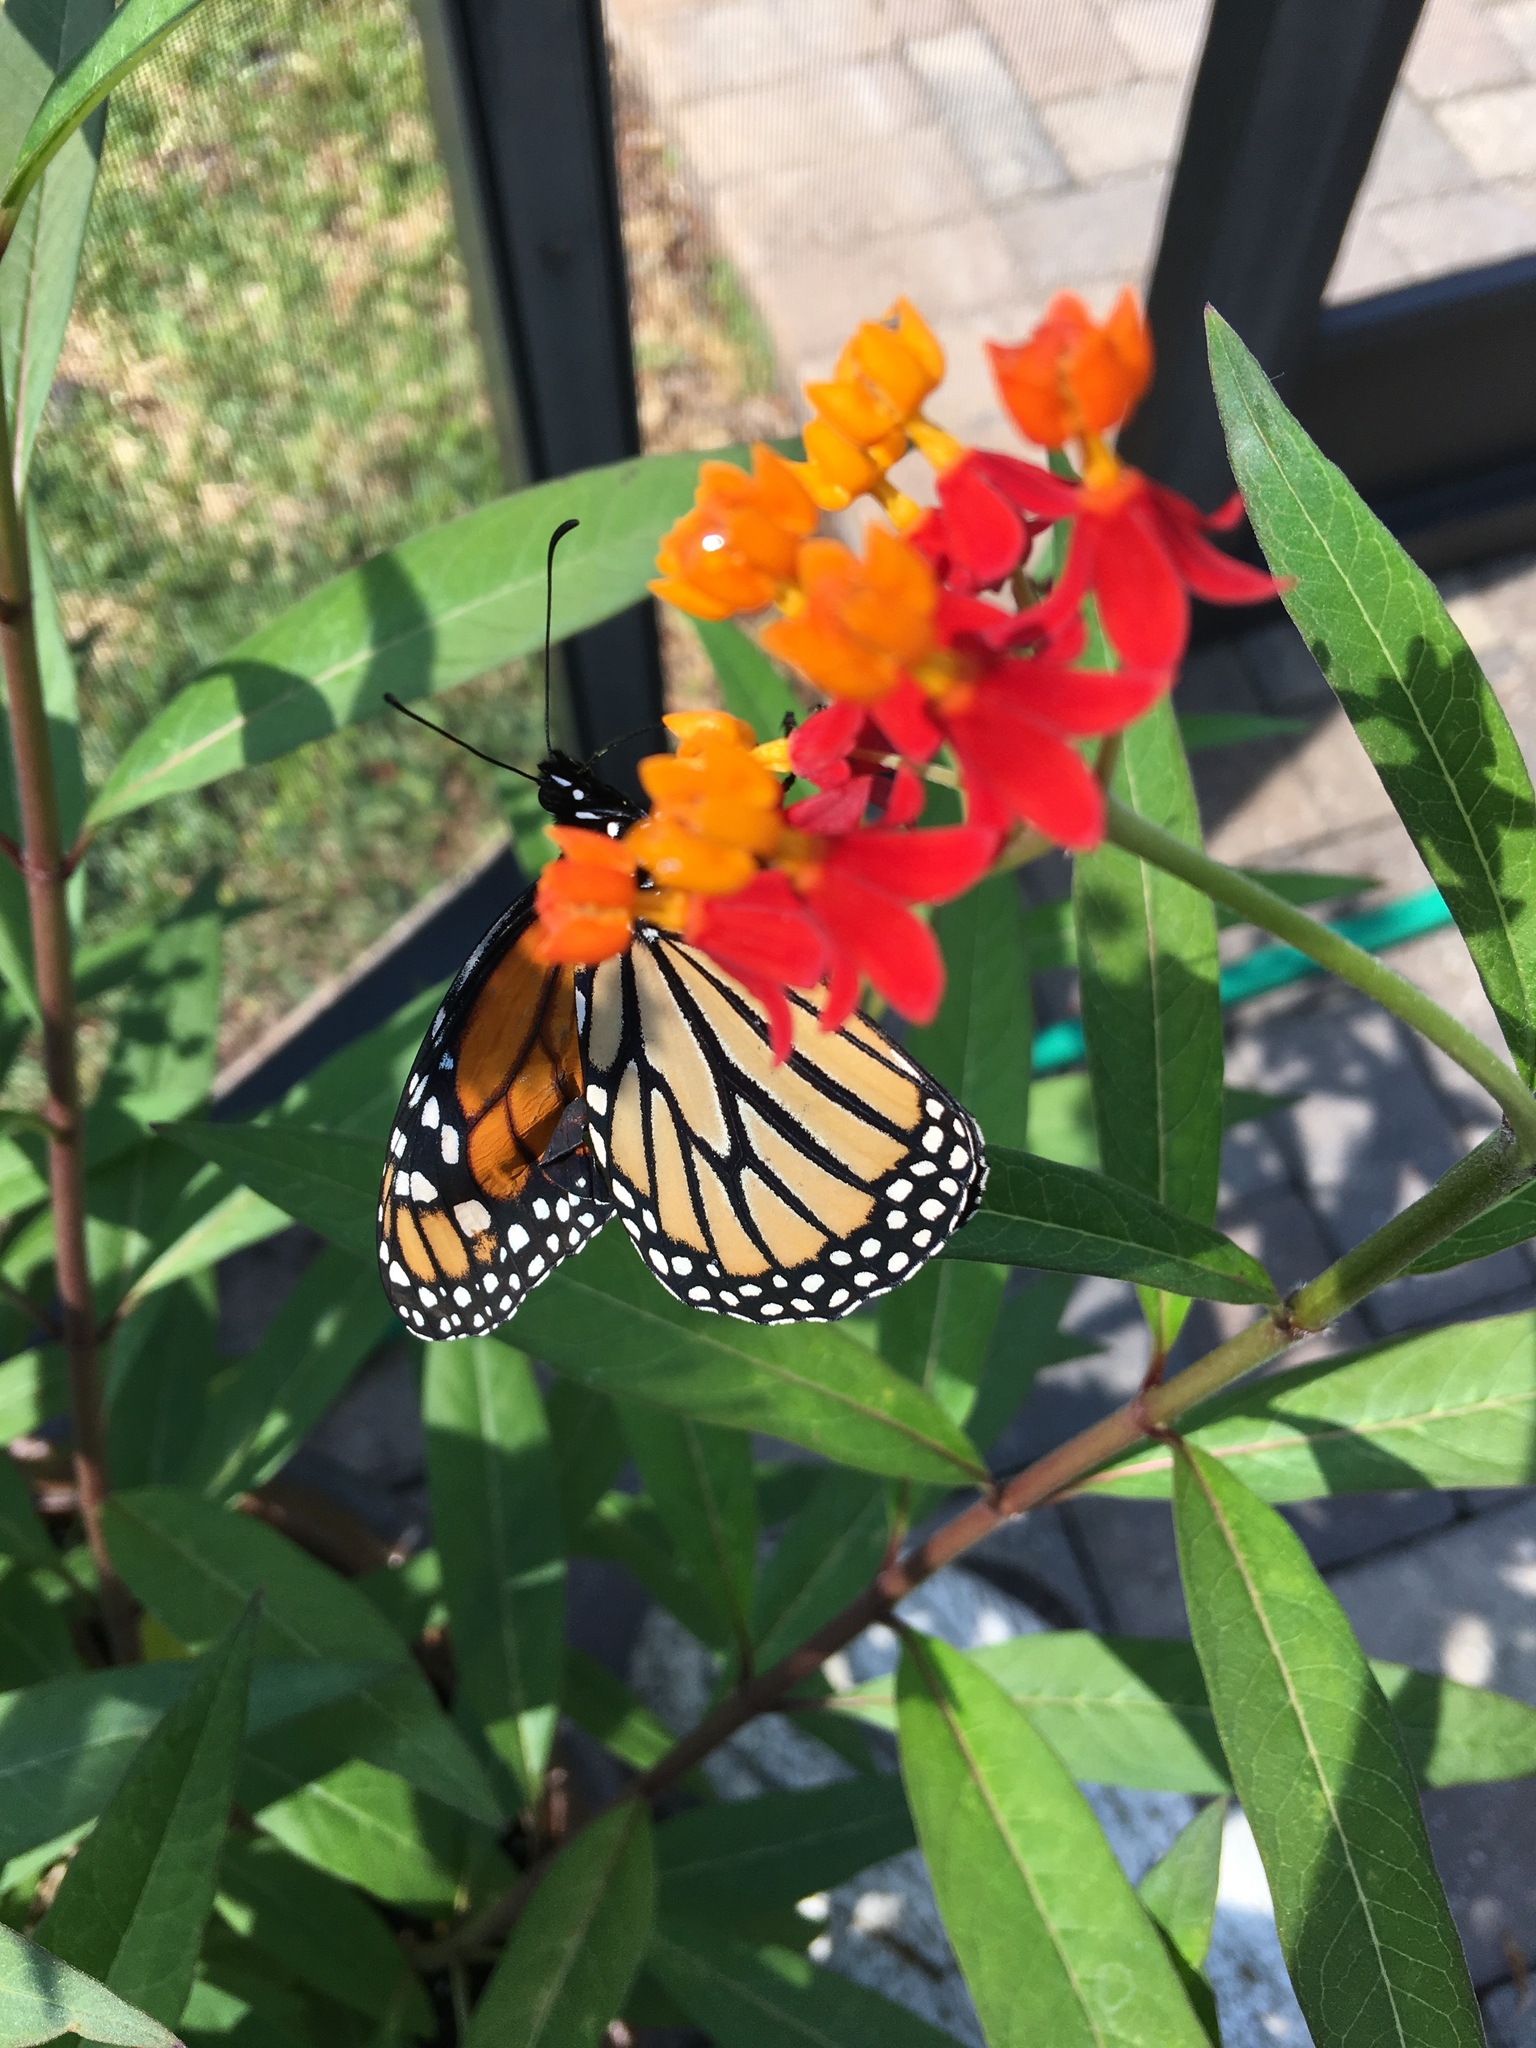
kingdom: Animalia
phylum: Arthropoda
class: Insecta
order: Lepidoptera
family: Nymphalidae
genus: Danaus
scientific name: Danaus plexippus
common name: Monarch
